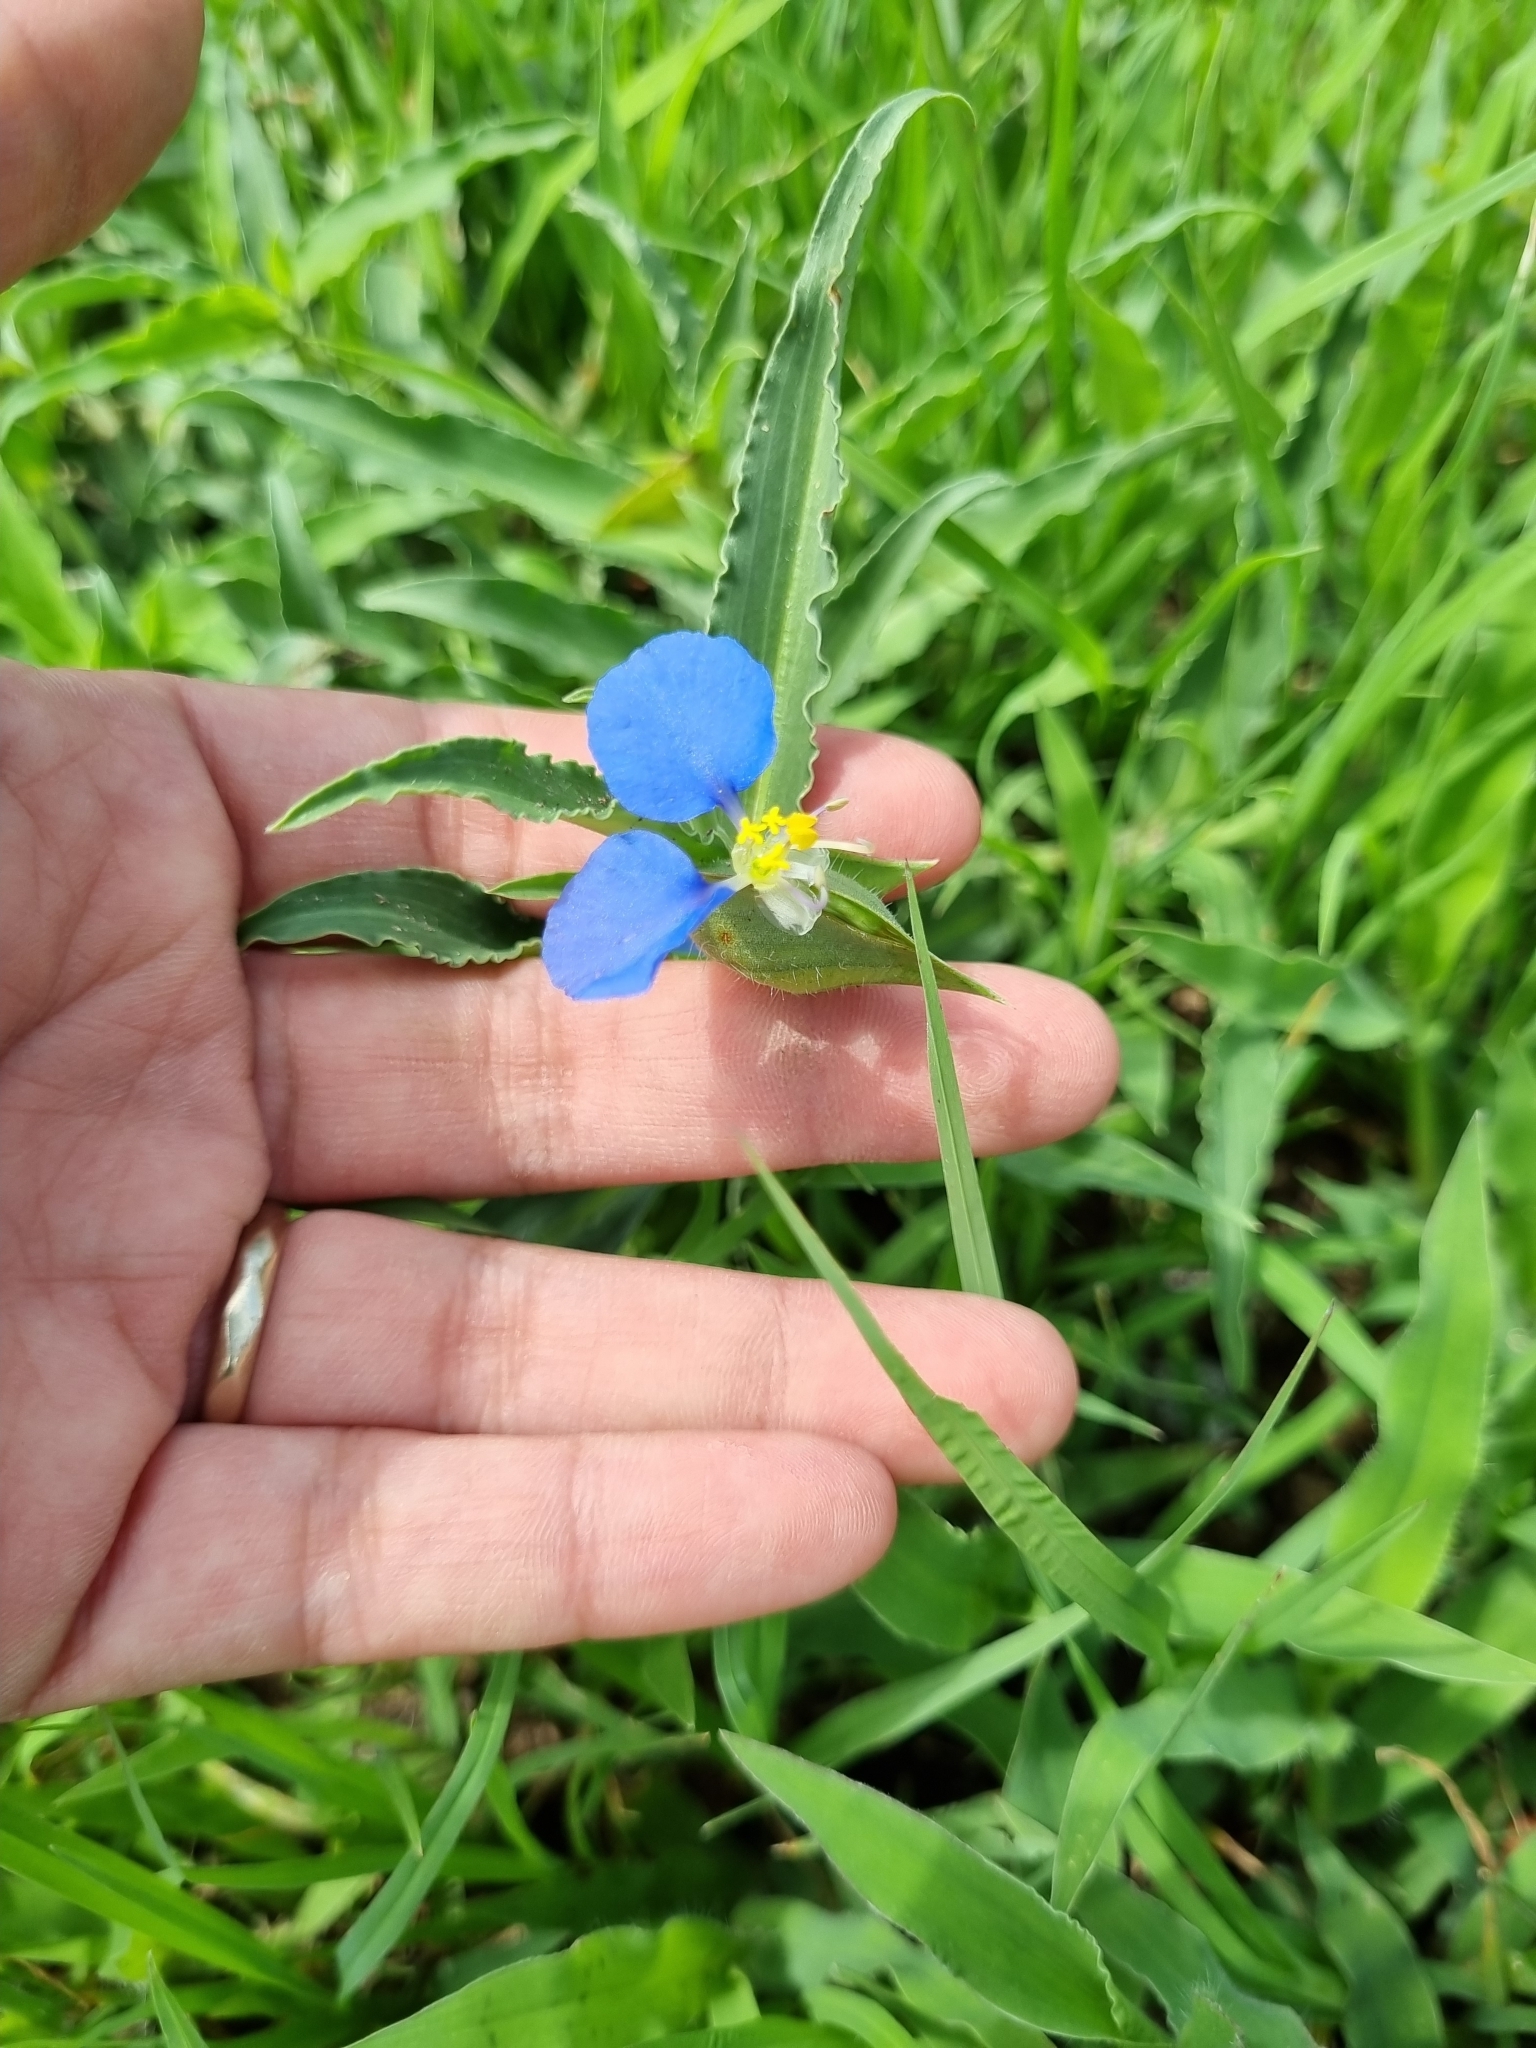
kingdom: Plantae
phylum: Tracheophyta
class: Liliopsida
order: Commelinales
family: Commelinaceae
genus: Commelina
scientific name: Commelina erecta
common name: Blousel blommetjie
